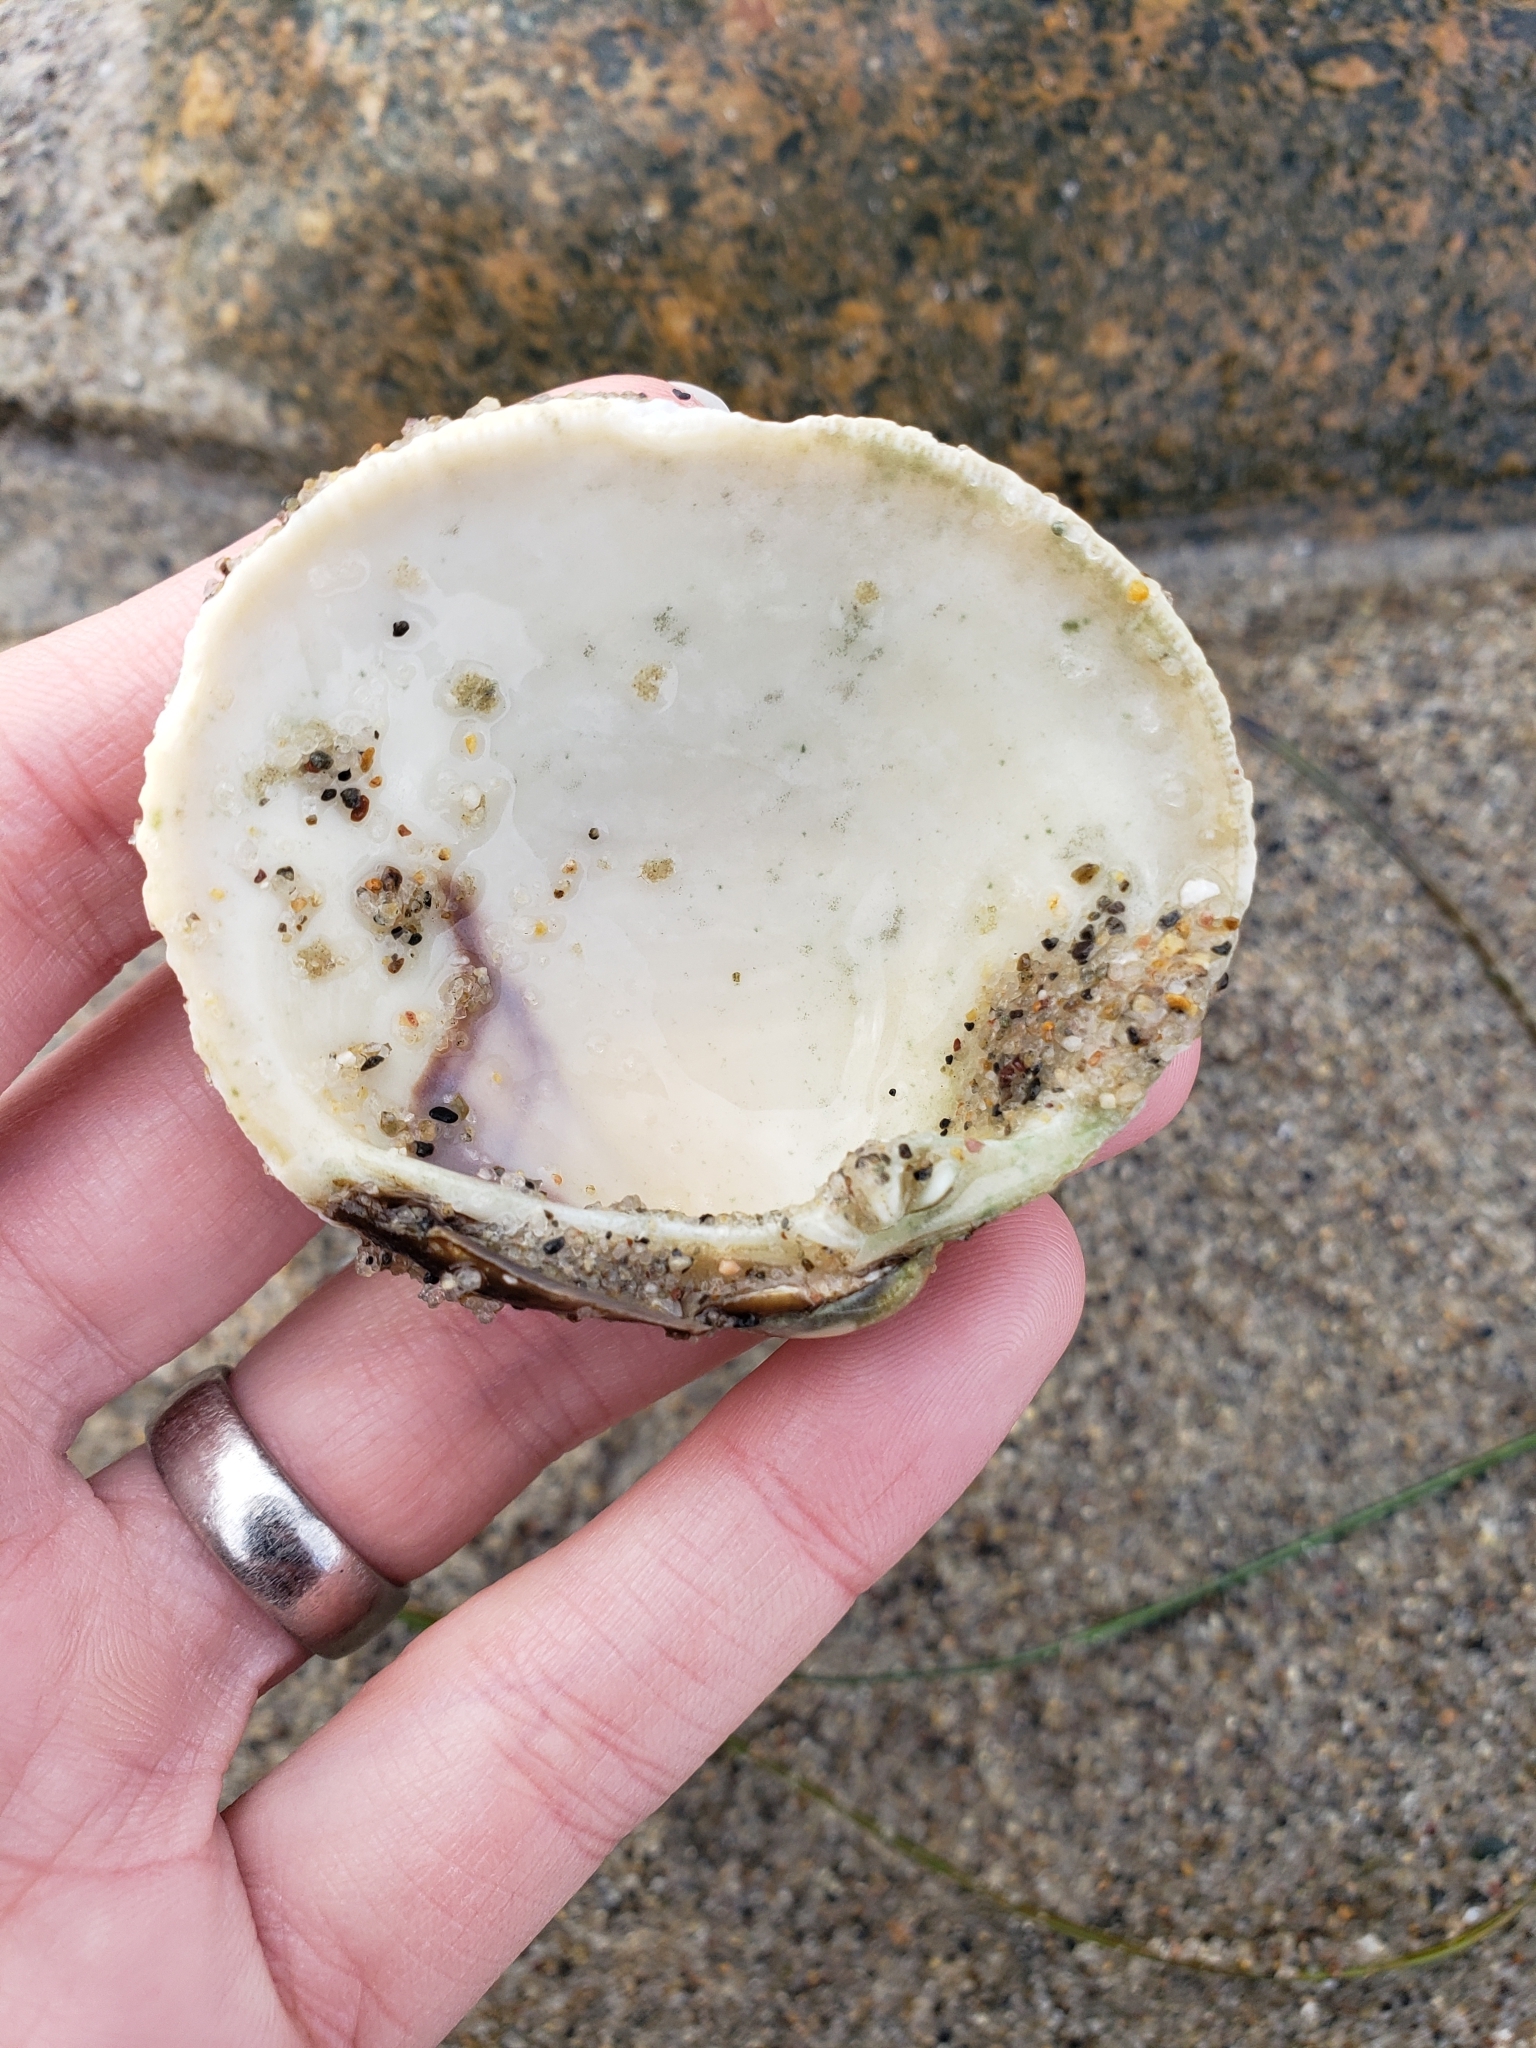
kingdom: Animalia
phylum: Mollusca
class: Bivalvia
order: Venerida
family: Veneridae
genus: Leukoma
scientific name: Leukoma staminea
